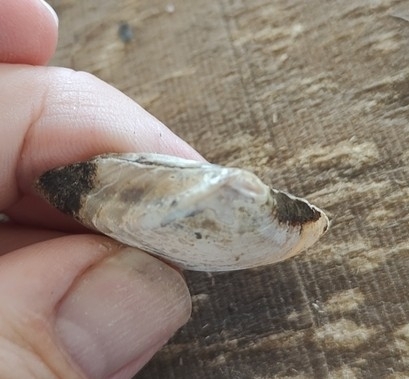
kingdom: Animalia
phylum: Mollusca
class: Bivalvia
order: Unionida
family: Unionidae
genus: Truncilla
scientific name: Truncilla truncata
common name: Deertoe
